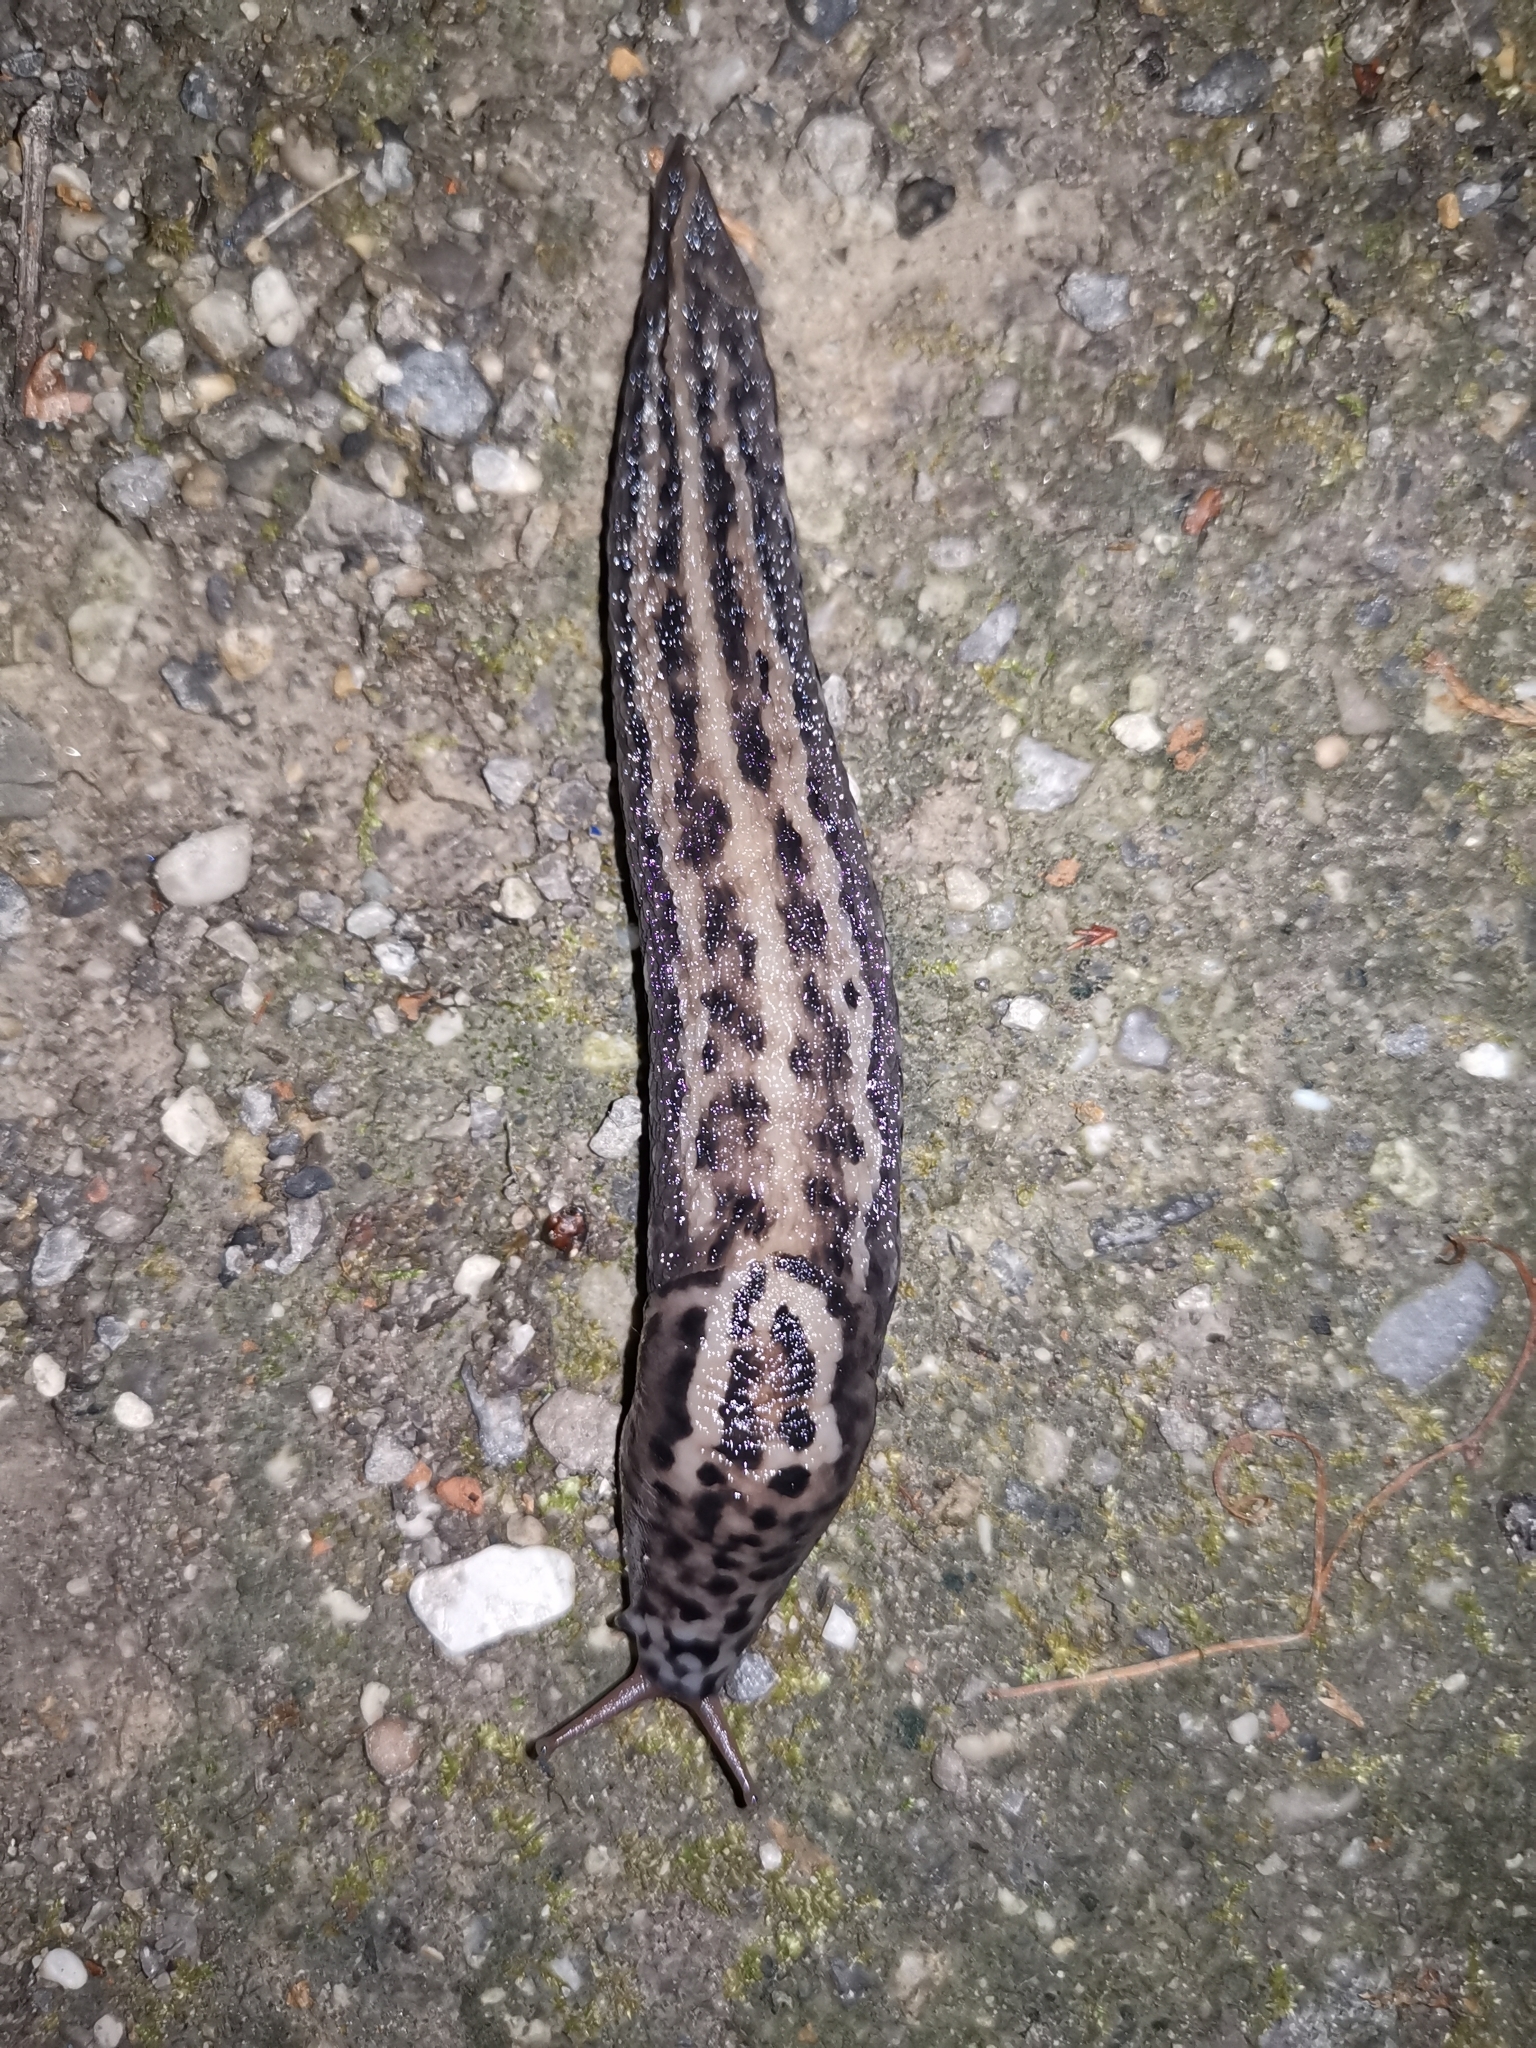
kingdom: Animalia
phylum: Mollusca
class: Gastropoda
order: Stylommatophora
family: Limacidae
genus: Limax
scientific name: Limax maximus
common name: Great grey slug
